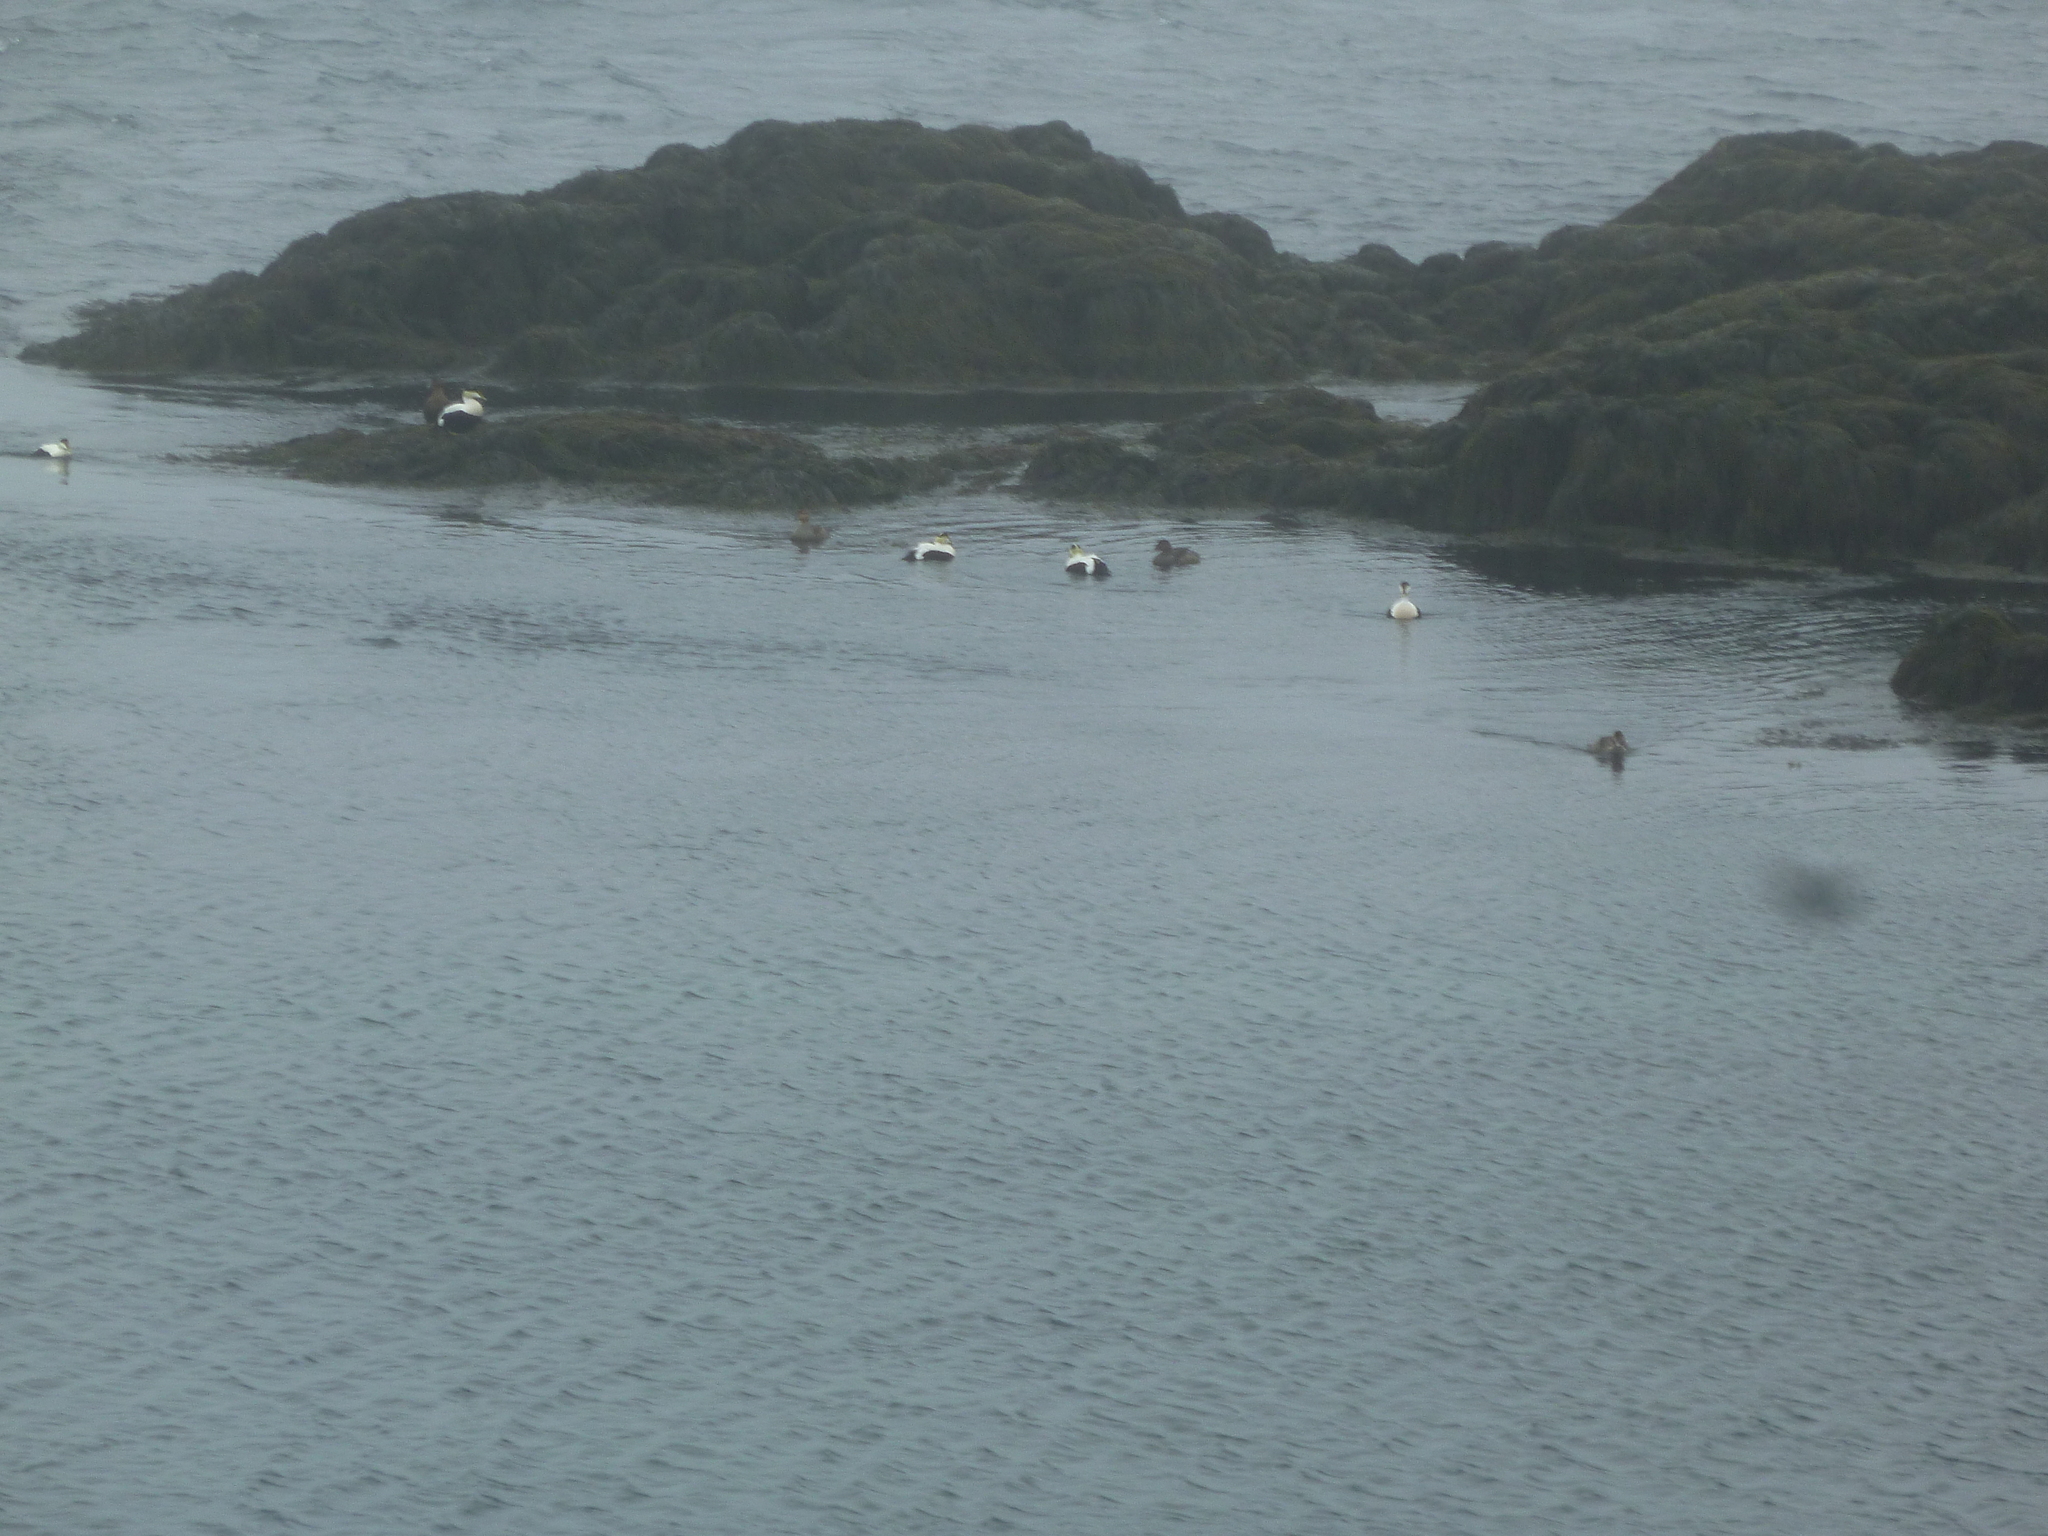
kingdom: Animalia
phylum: Chordata
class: Aves
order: Anseriformes
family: Anatidae
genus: Somateria
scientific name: Somateria mollissima
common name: Common eider
